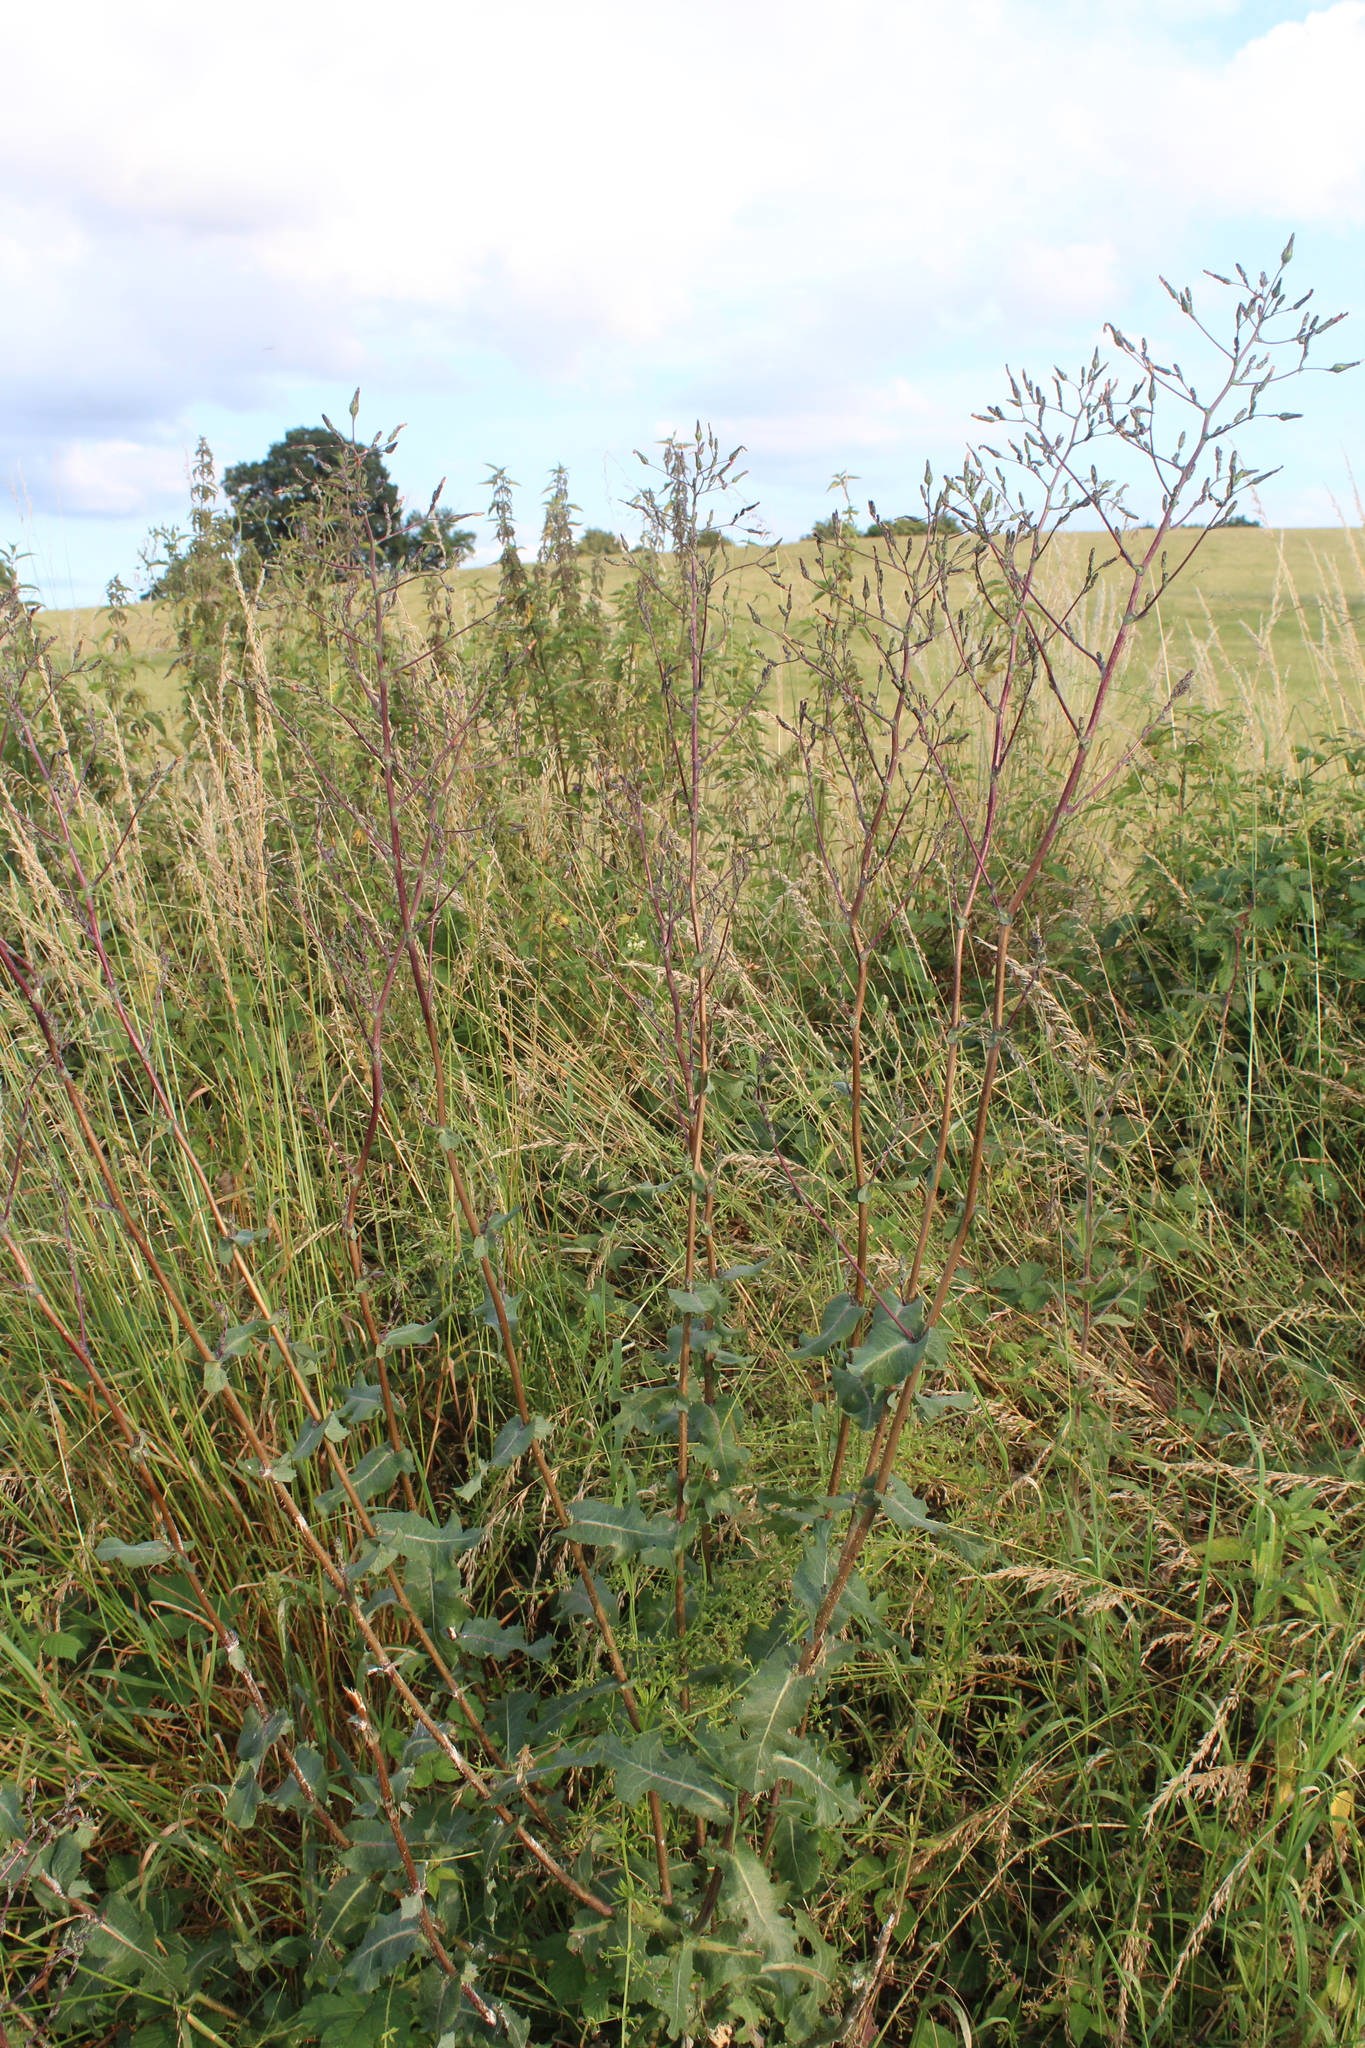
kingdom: Plantae
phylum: Tracheophyta
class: Magnoliopsida
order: Asterales
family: Asteraceae
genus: Lactuca
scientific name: Lactuca virosa
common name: Great lettuce
